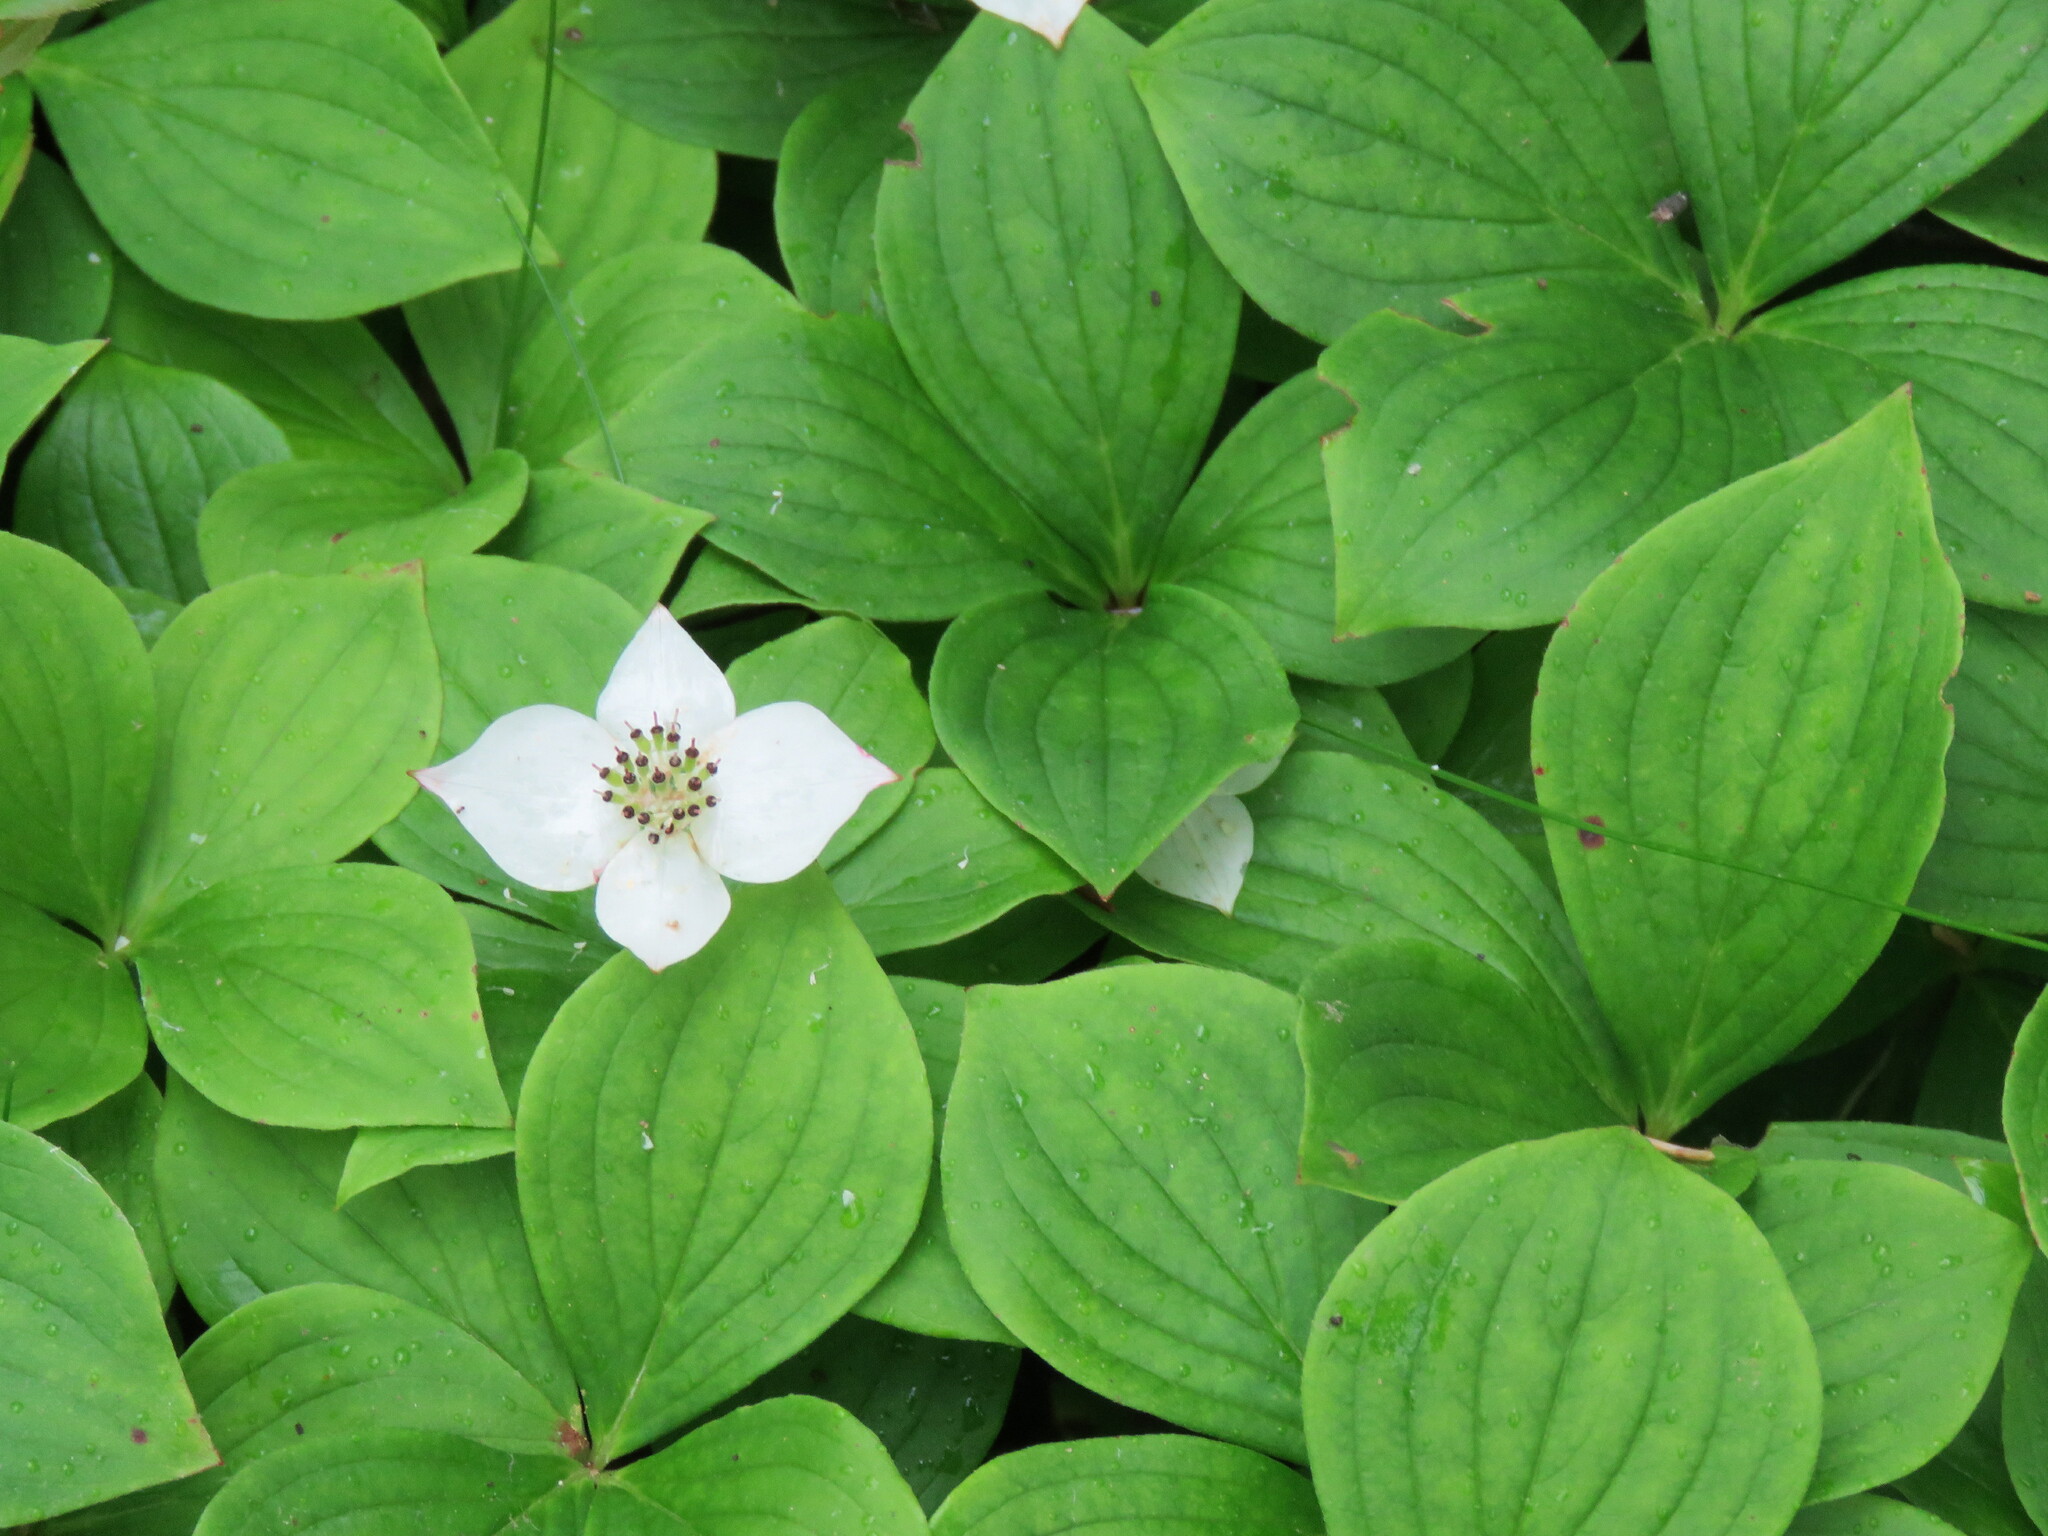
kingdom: Plantae
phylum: Tracheophyta
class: Magnoliopsida
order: Cornales
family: Cornaceae
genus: Cornus
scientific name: Cornus canadensis
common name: Creeping dogwood
